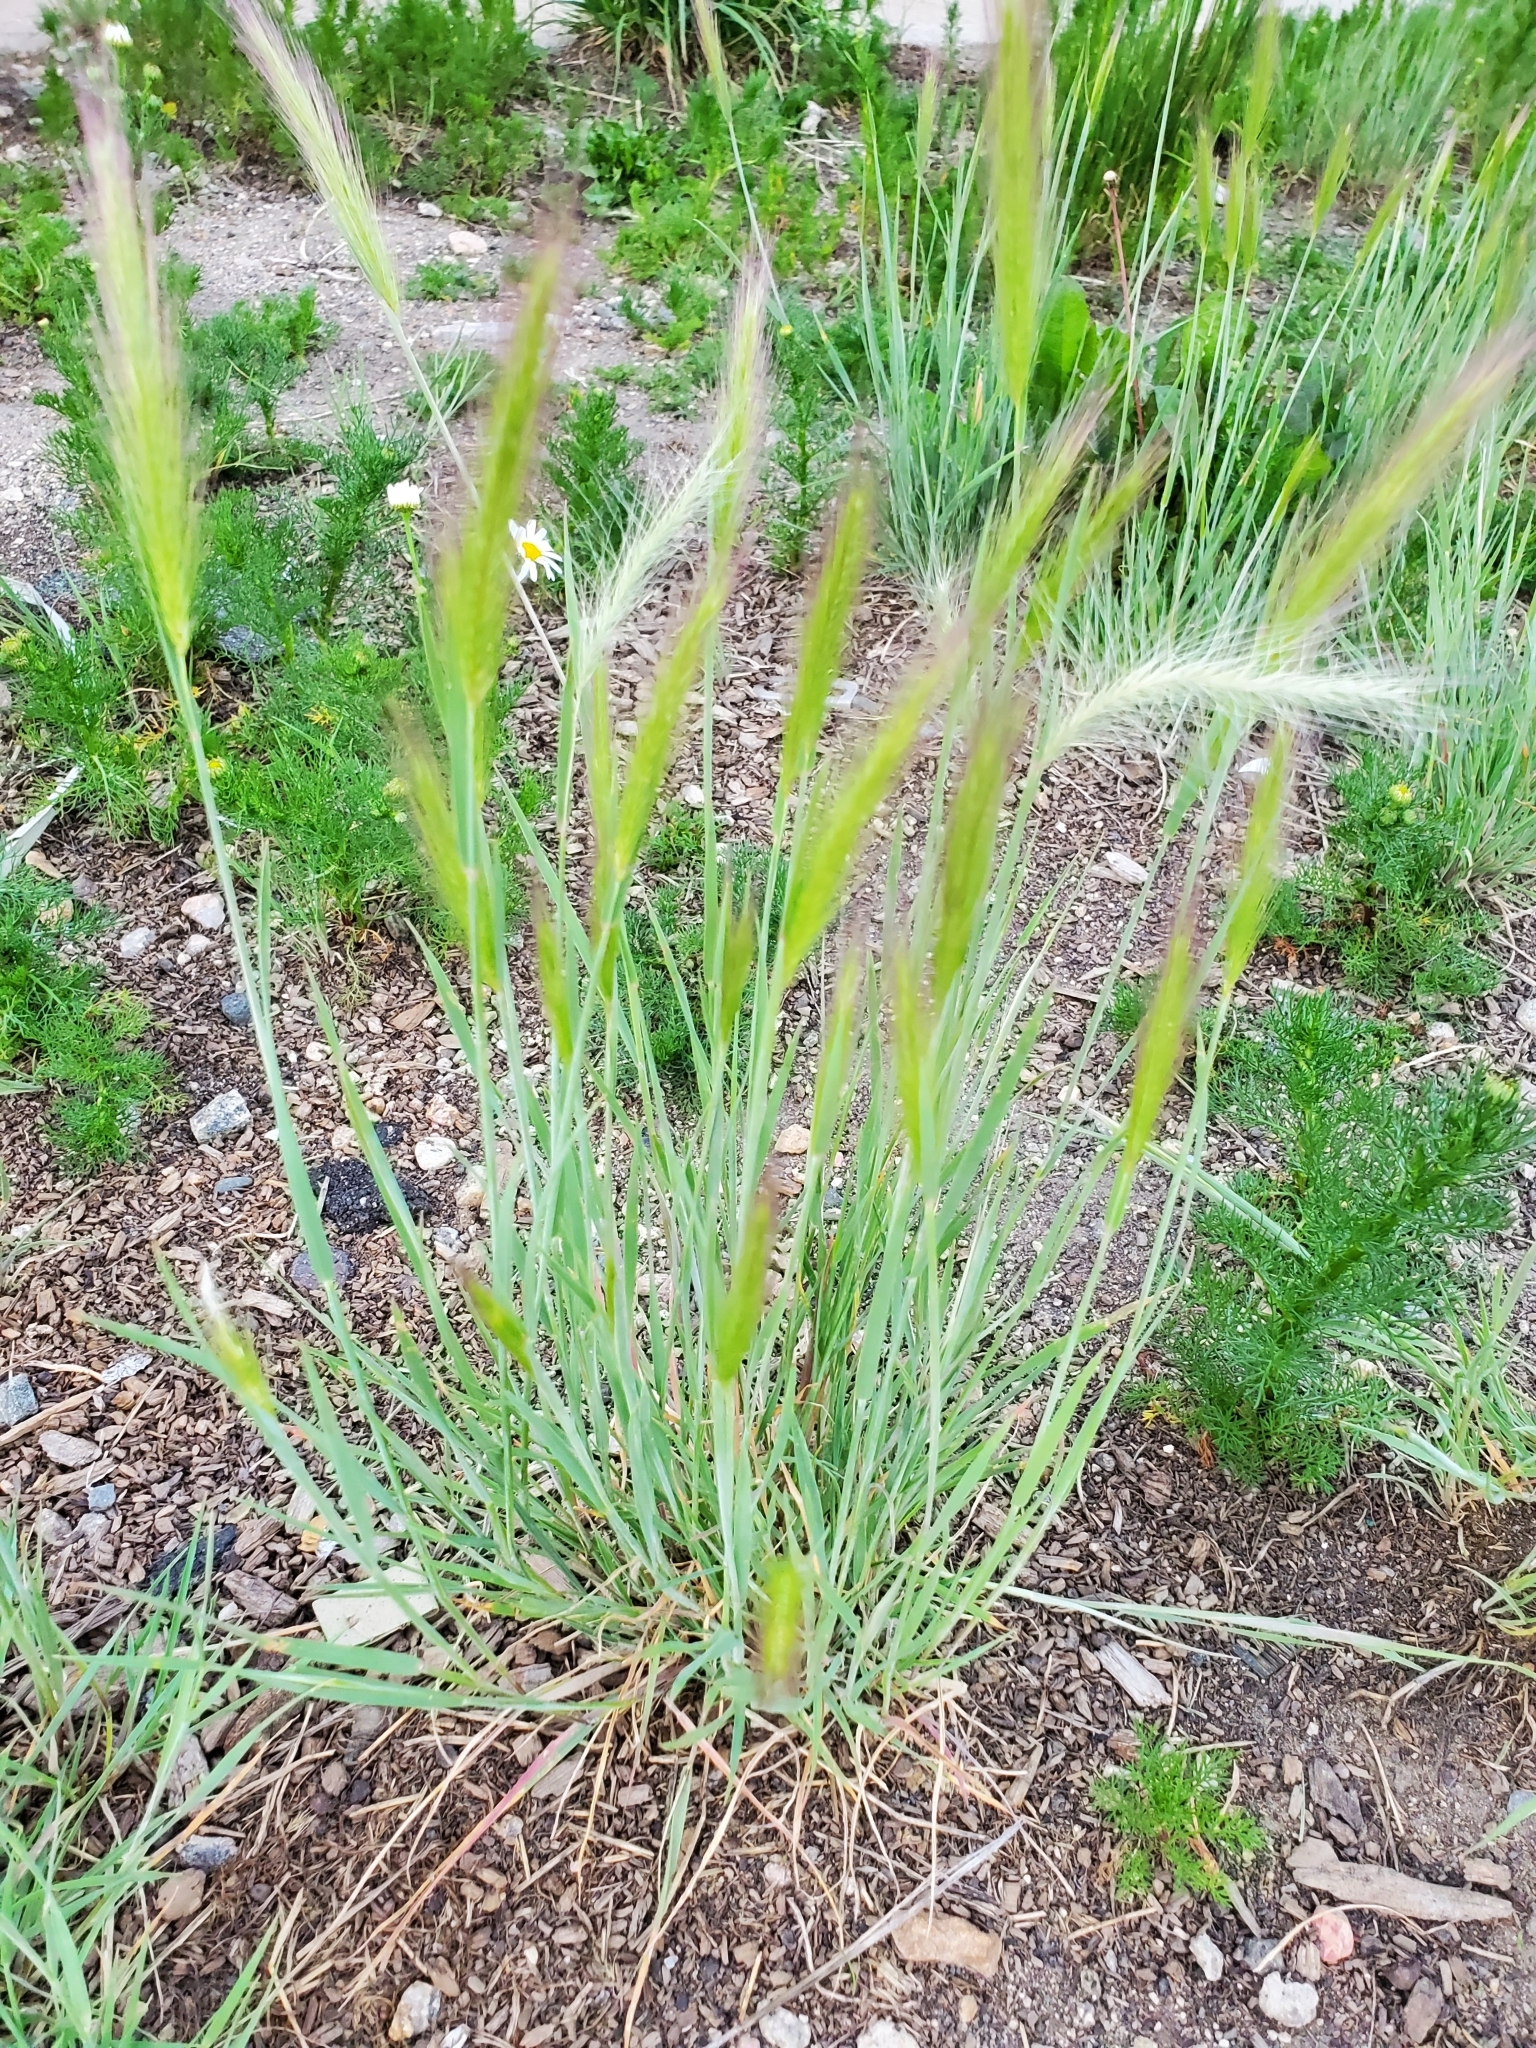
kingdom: Plantae
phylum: Tracheophyta
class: Liliopsida
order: Poales
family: Poaceae
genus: Hordeum
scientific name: Hordeum jubatum
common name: Foxtail barley
